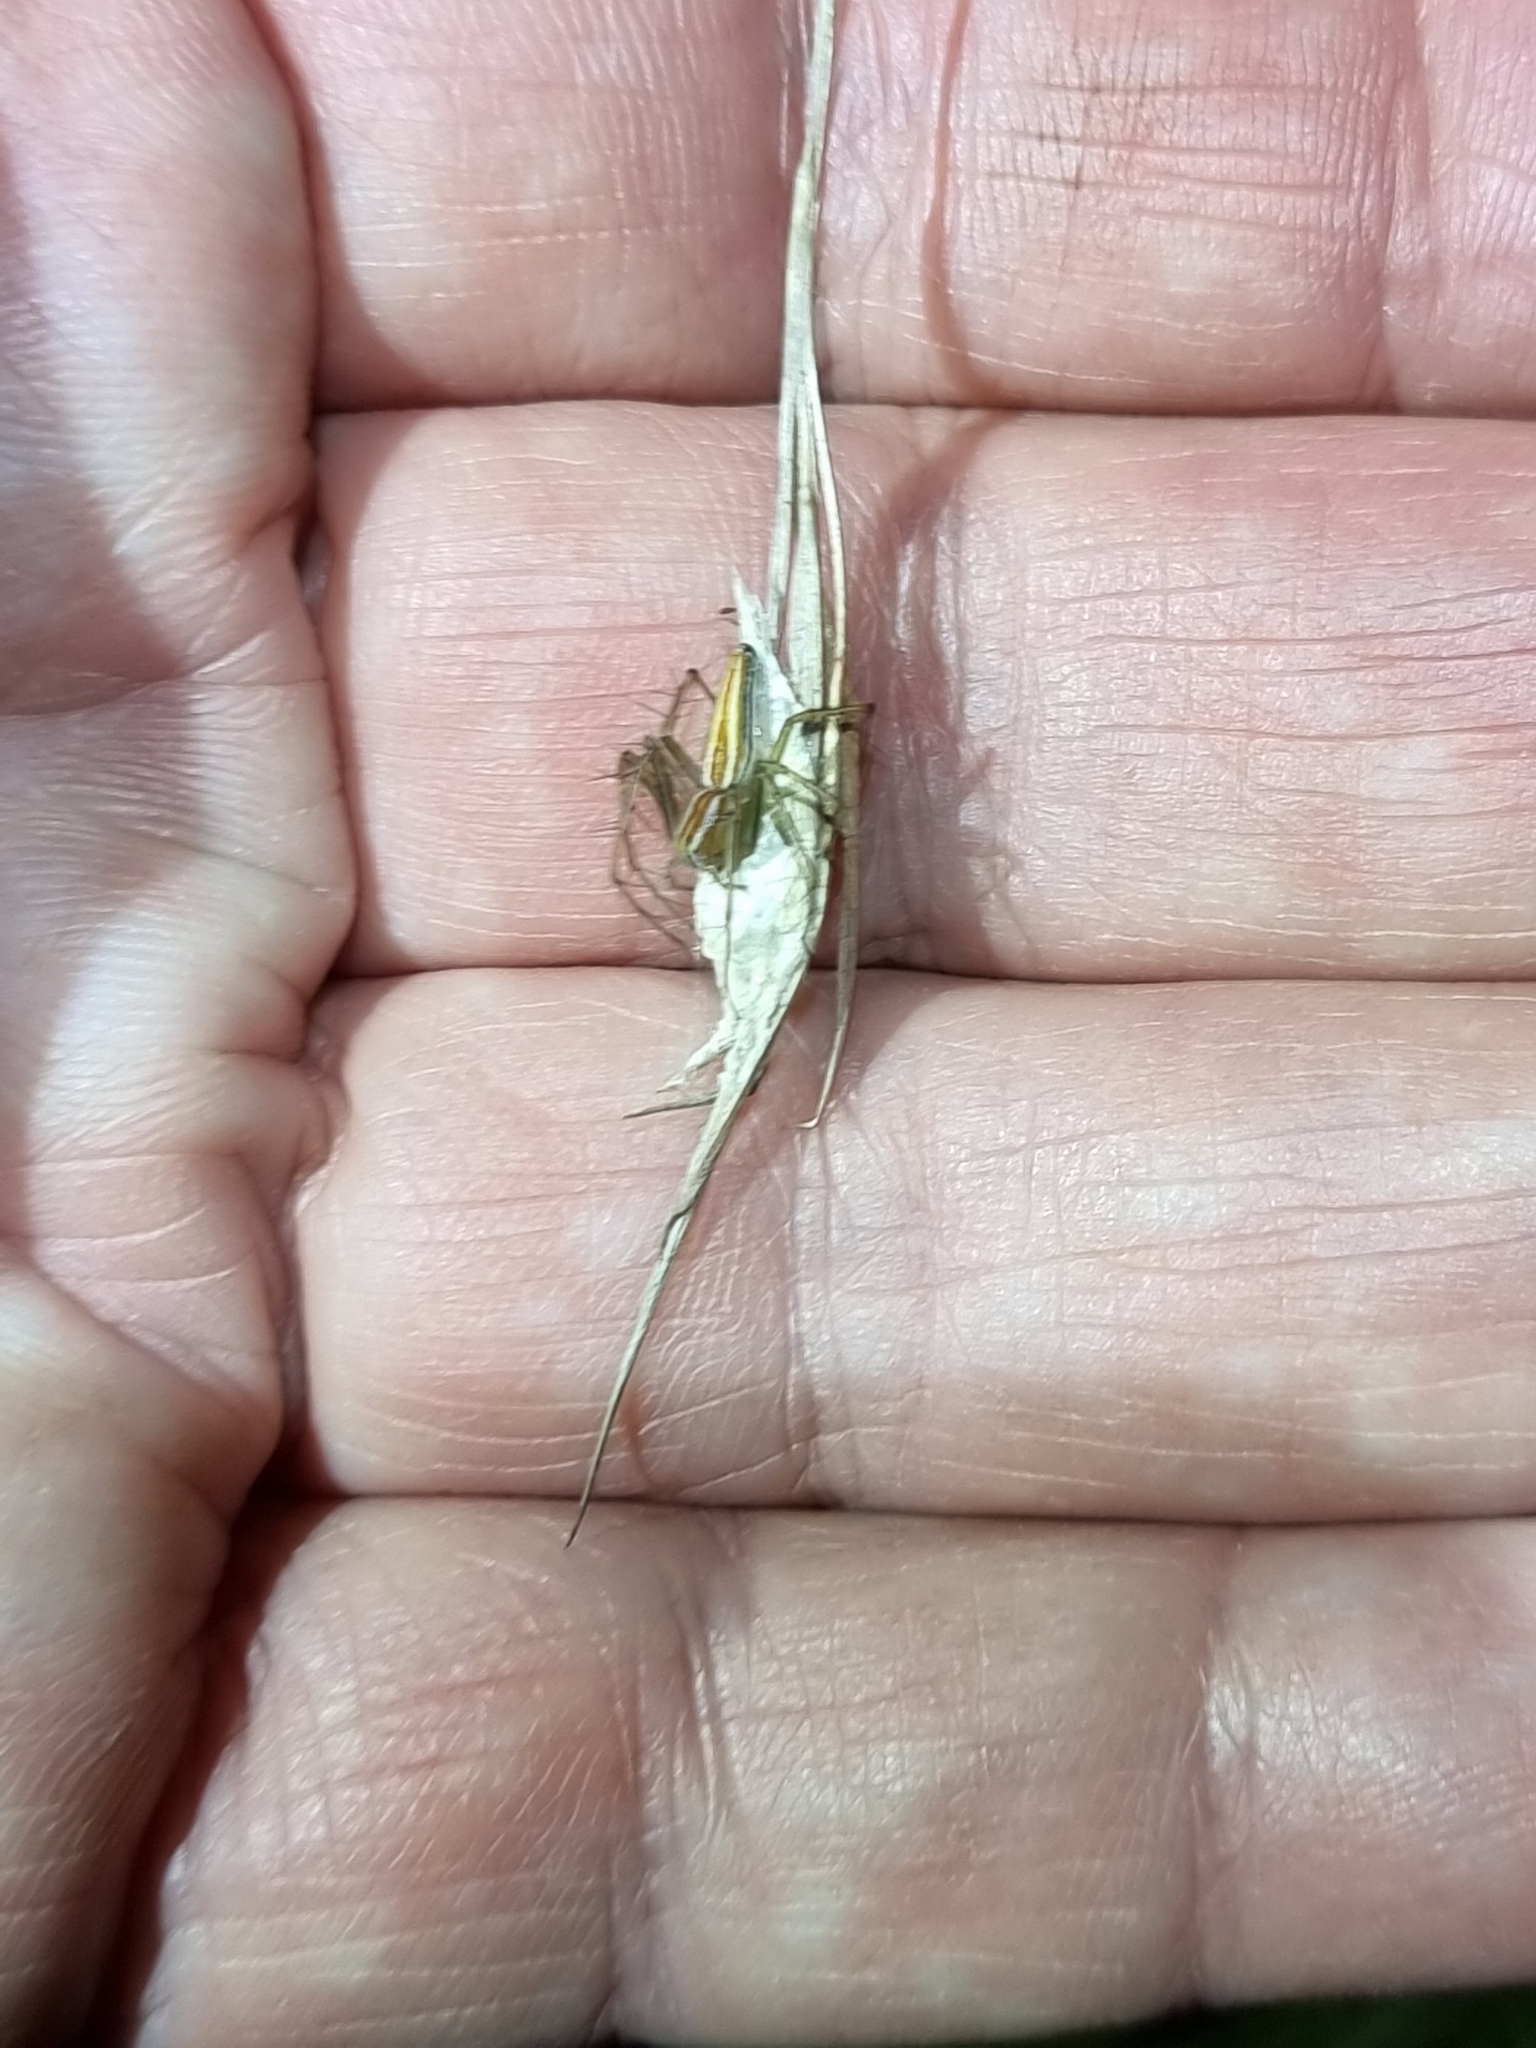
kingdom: Animalia
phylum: Arthropoda
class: Arachnida
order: Araneae
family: Oxyopidae
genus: Oxyopes
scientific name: Oxyopes macilentus
